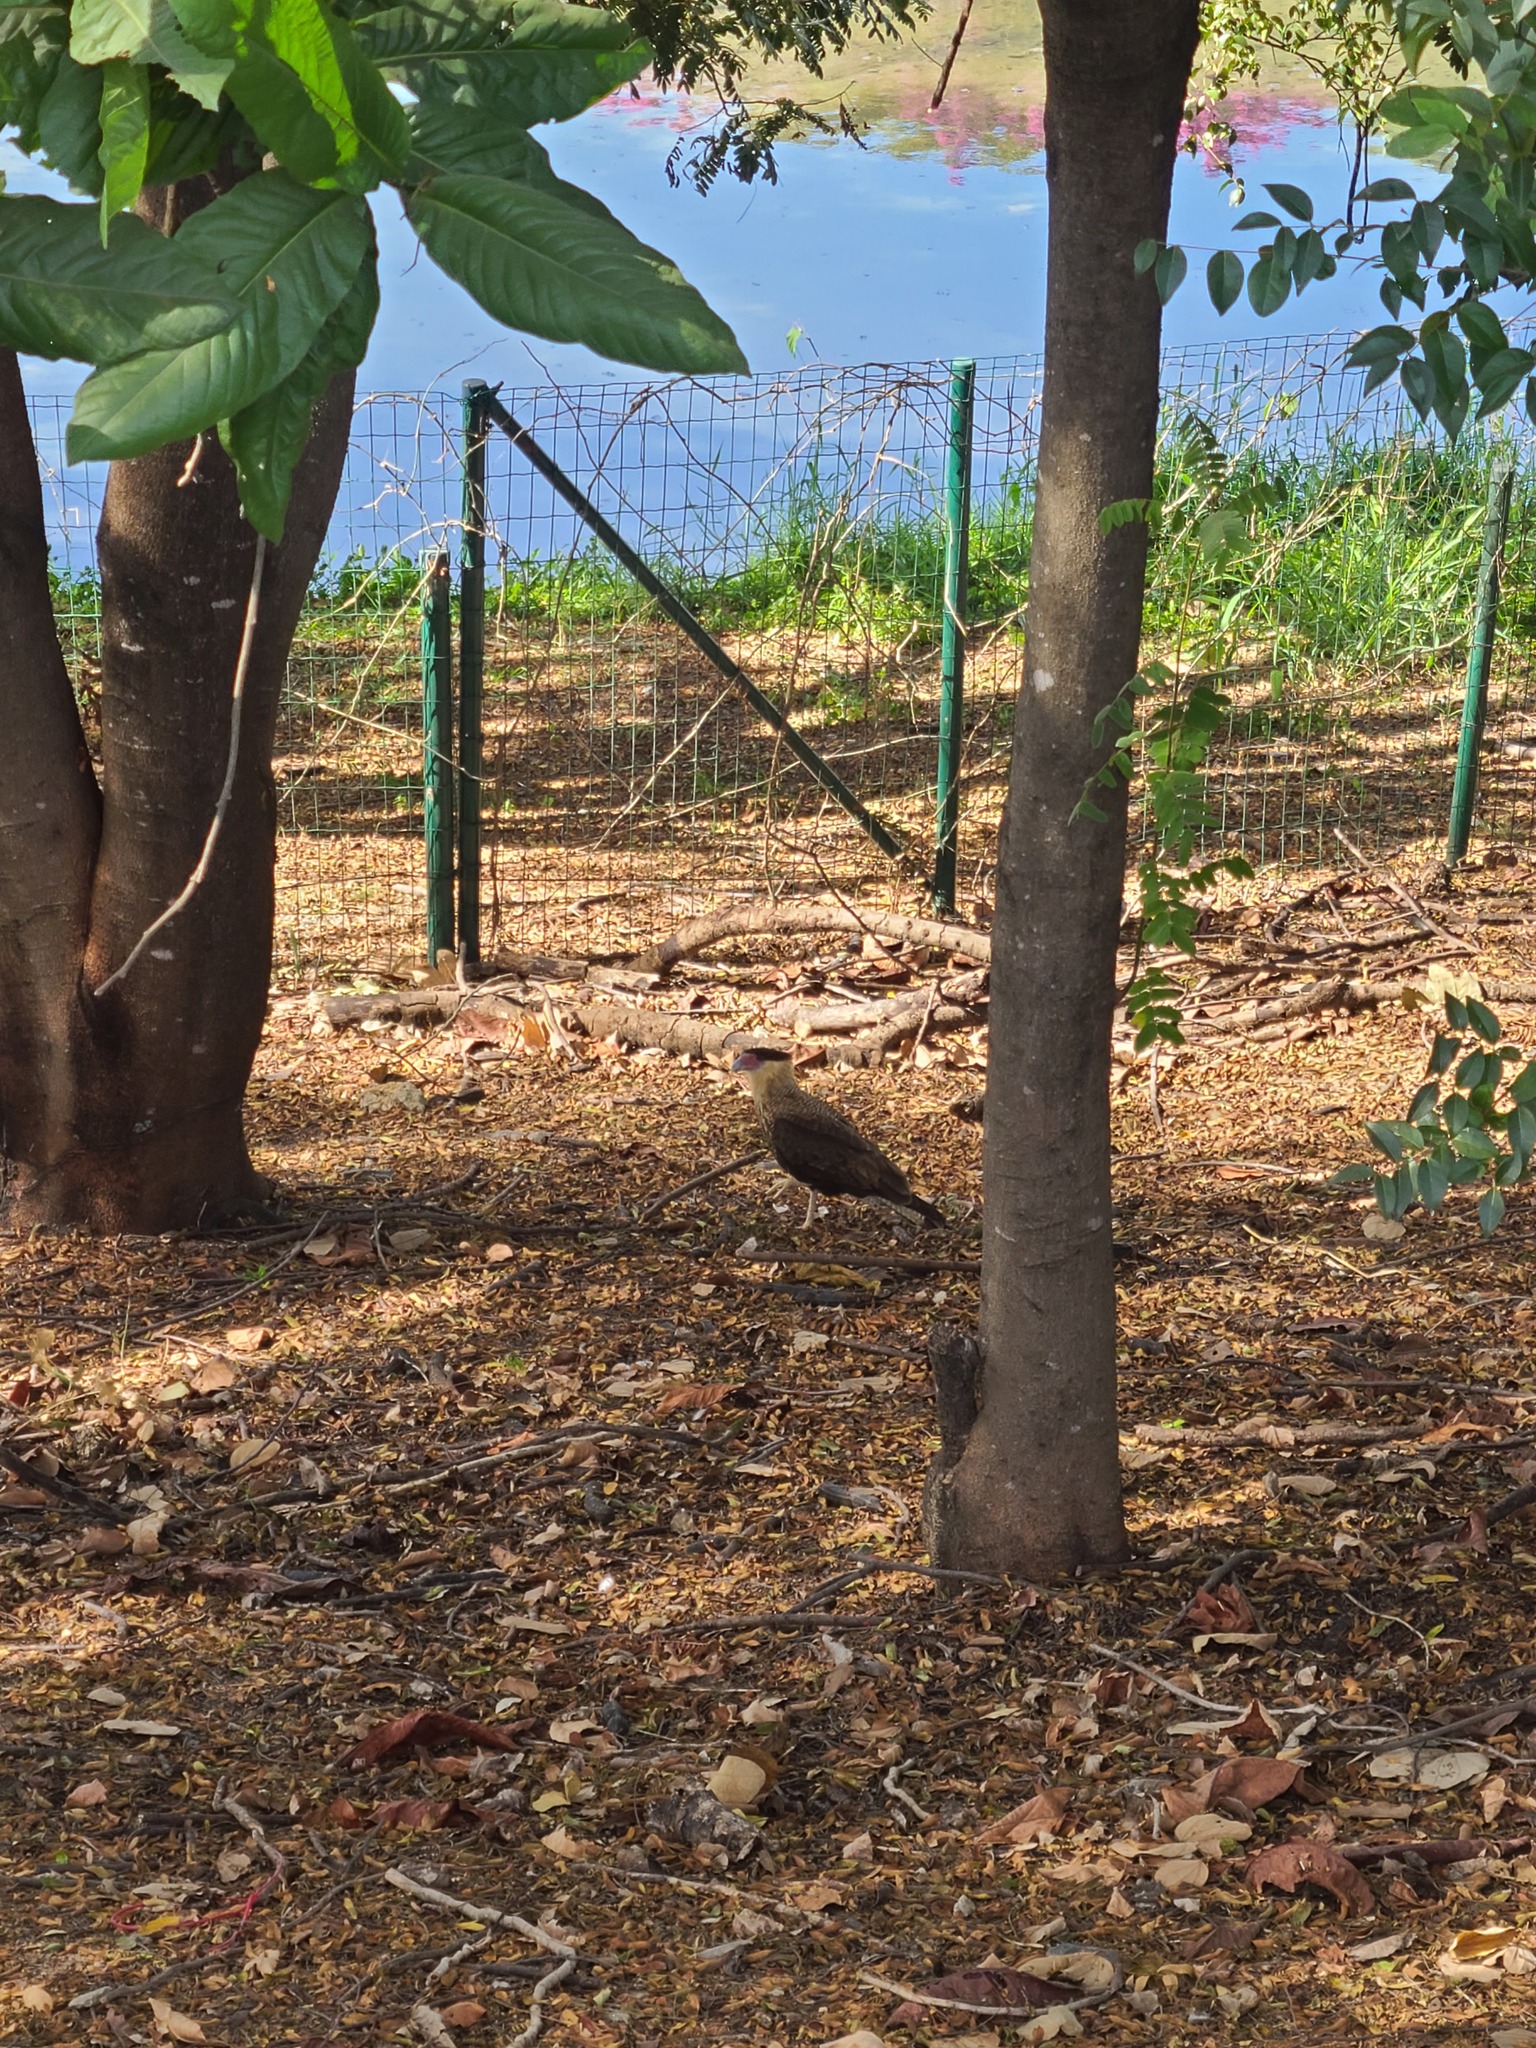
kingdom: Animalia
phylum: Chordata
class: Aves
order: Falconiformes
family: Falconidae
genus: Caracara
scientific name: Caracara plancus
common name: Southern caracara
